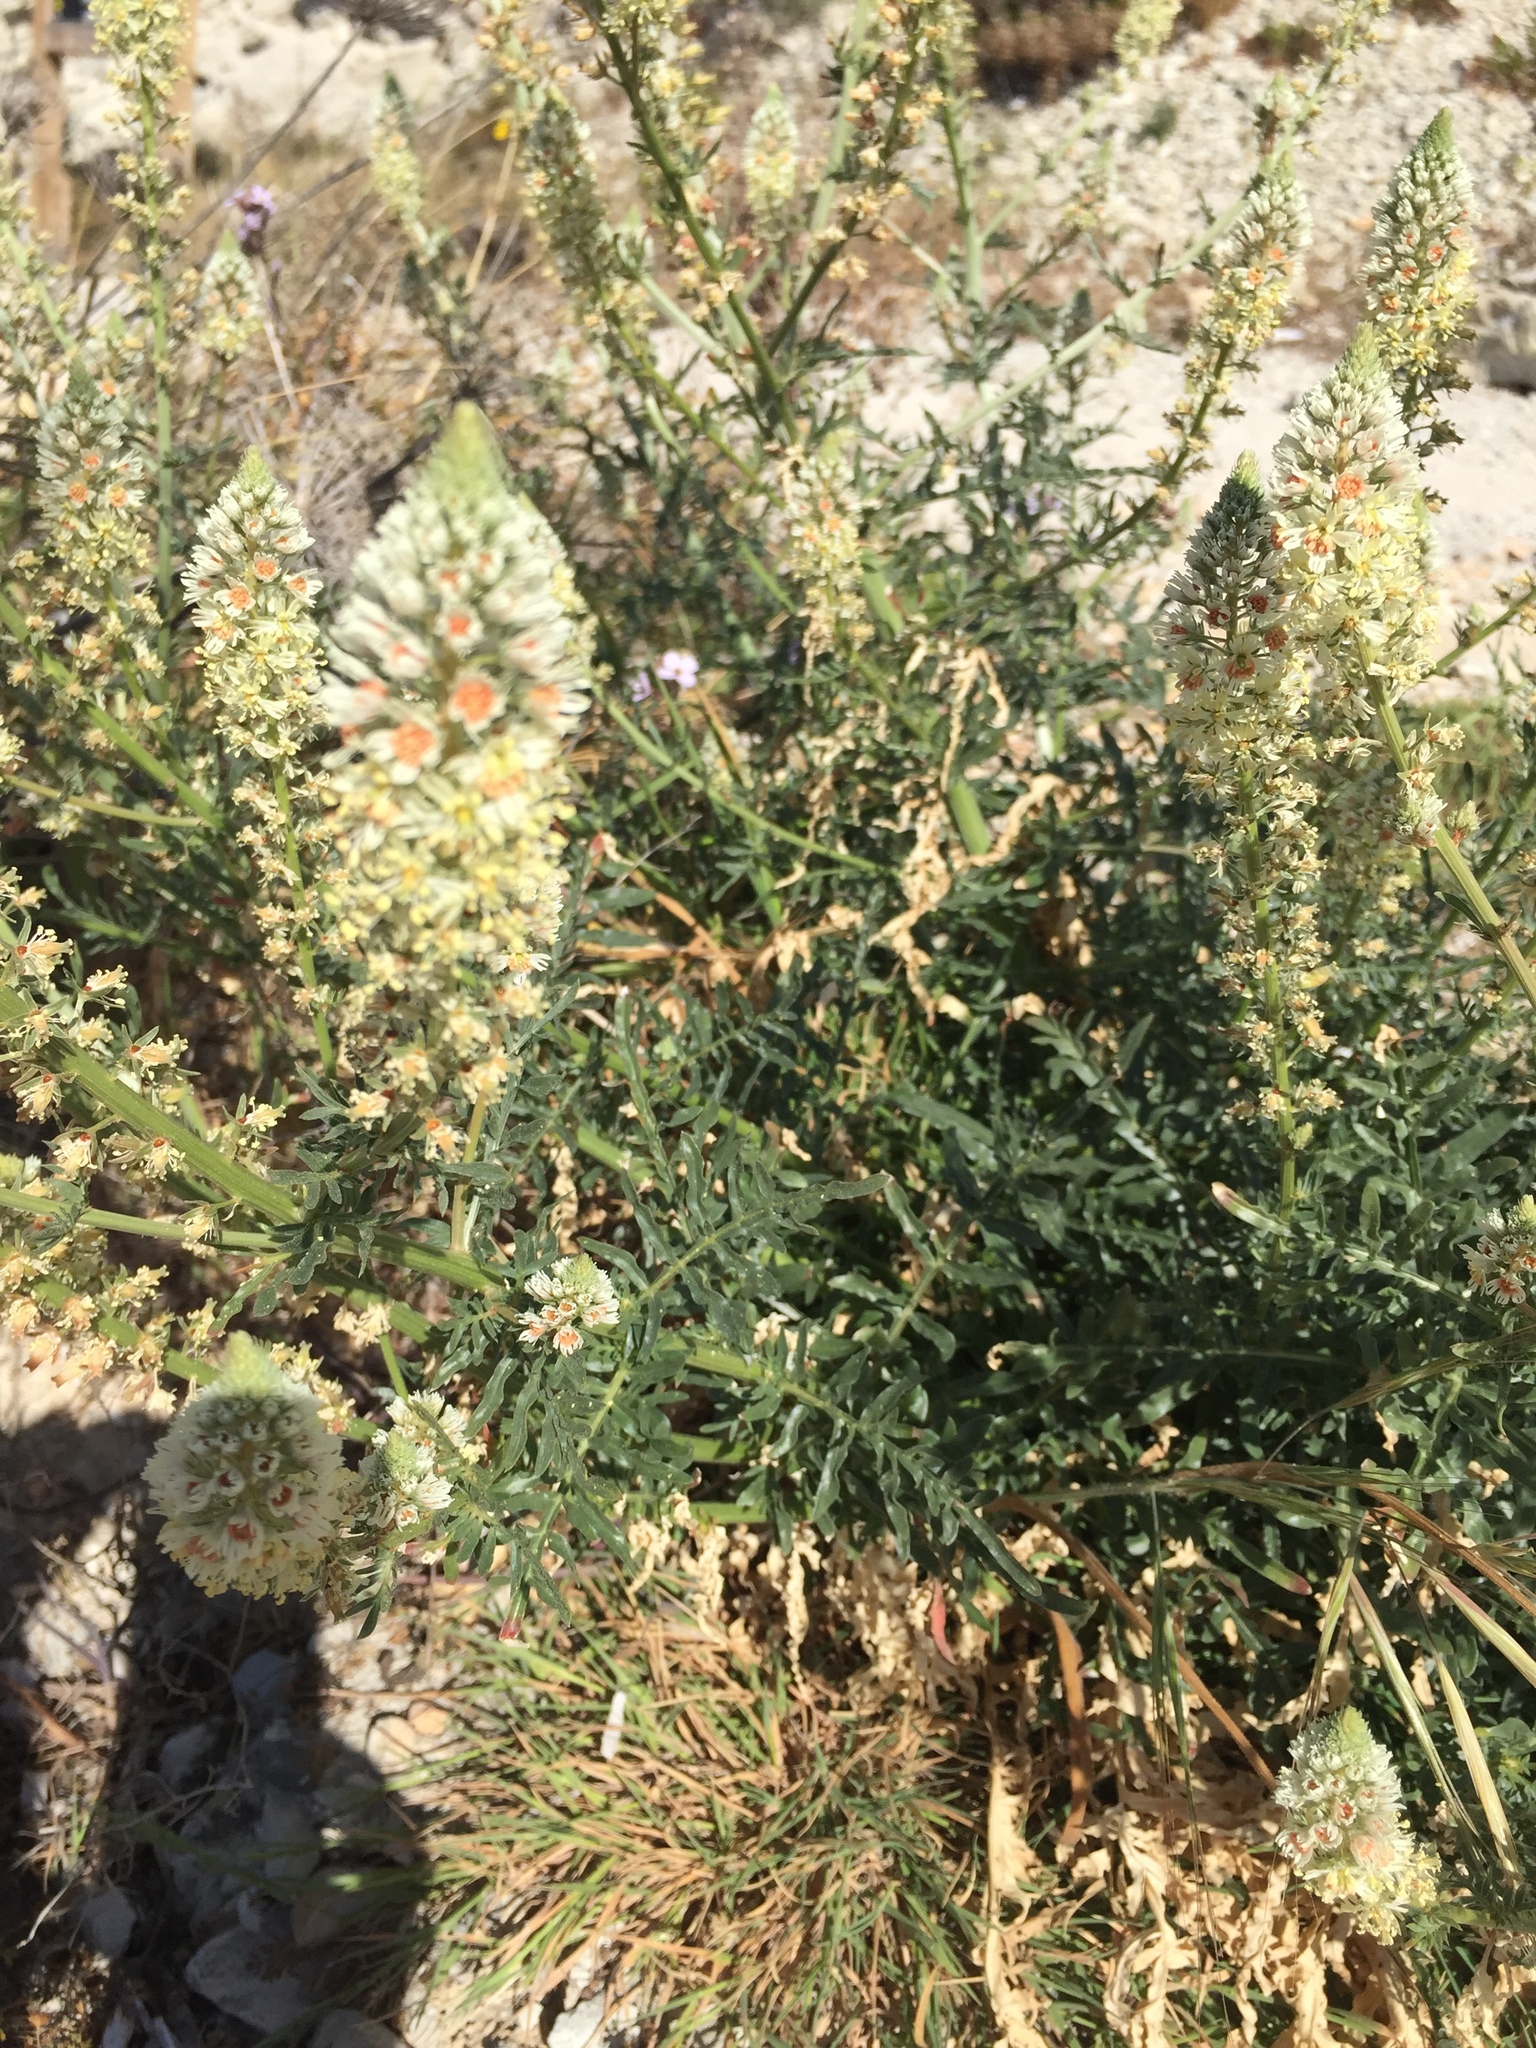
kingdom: Plantae
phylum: Tracheophyta
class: Magnoliopsida
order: Brassicales
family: Resedaceae
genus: Reseda
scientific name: Reseda alba
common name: White mignonette
